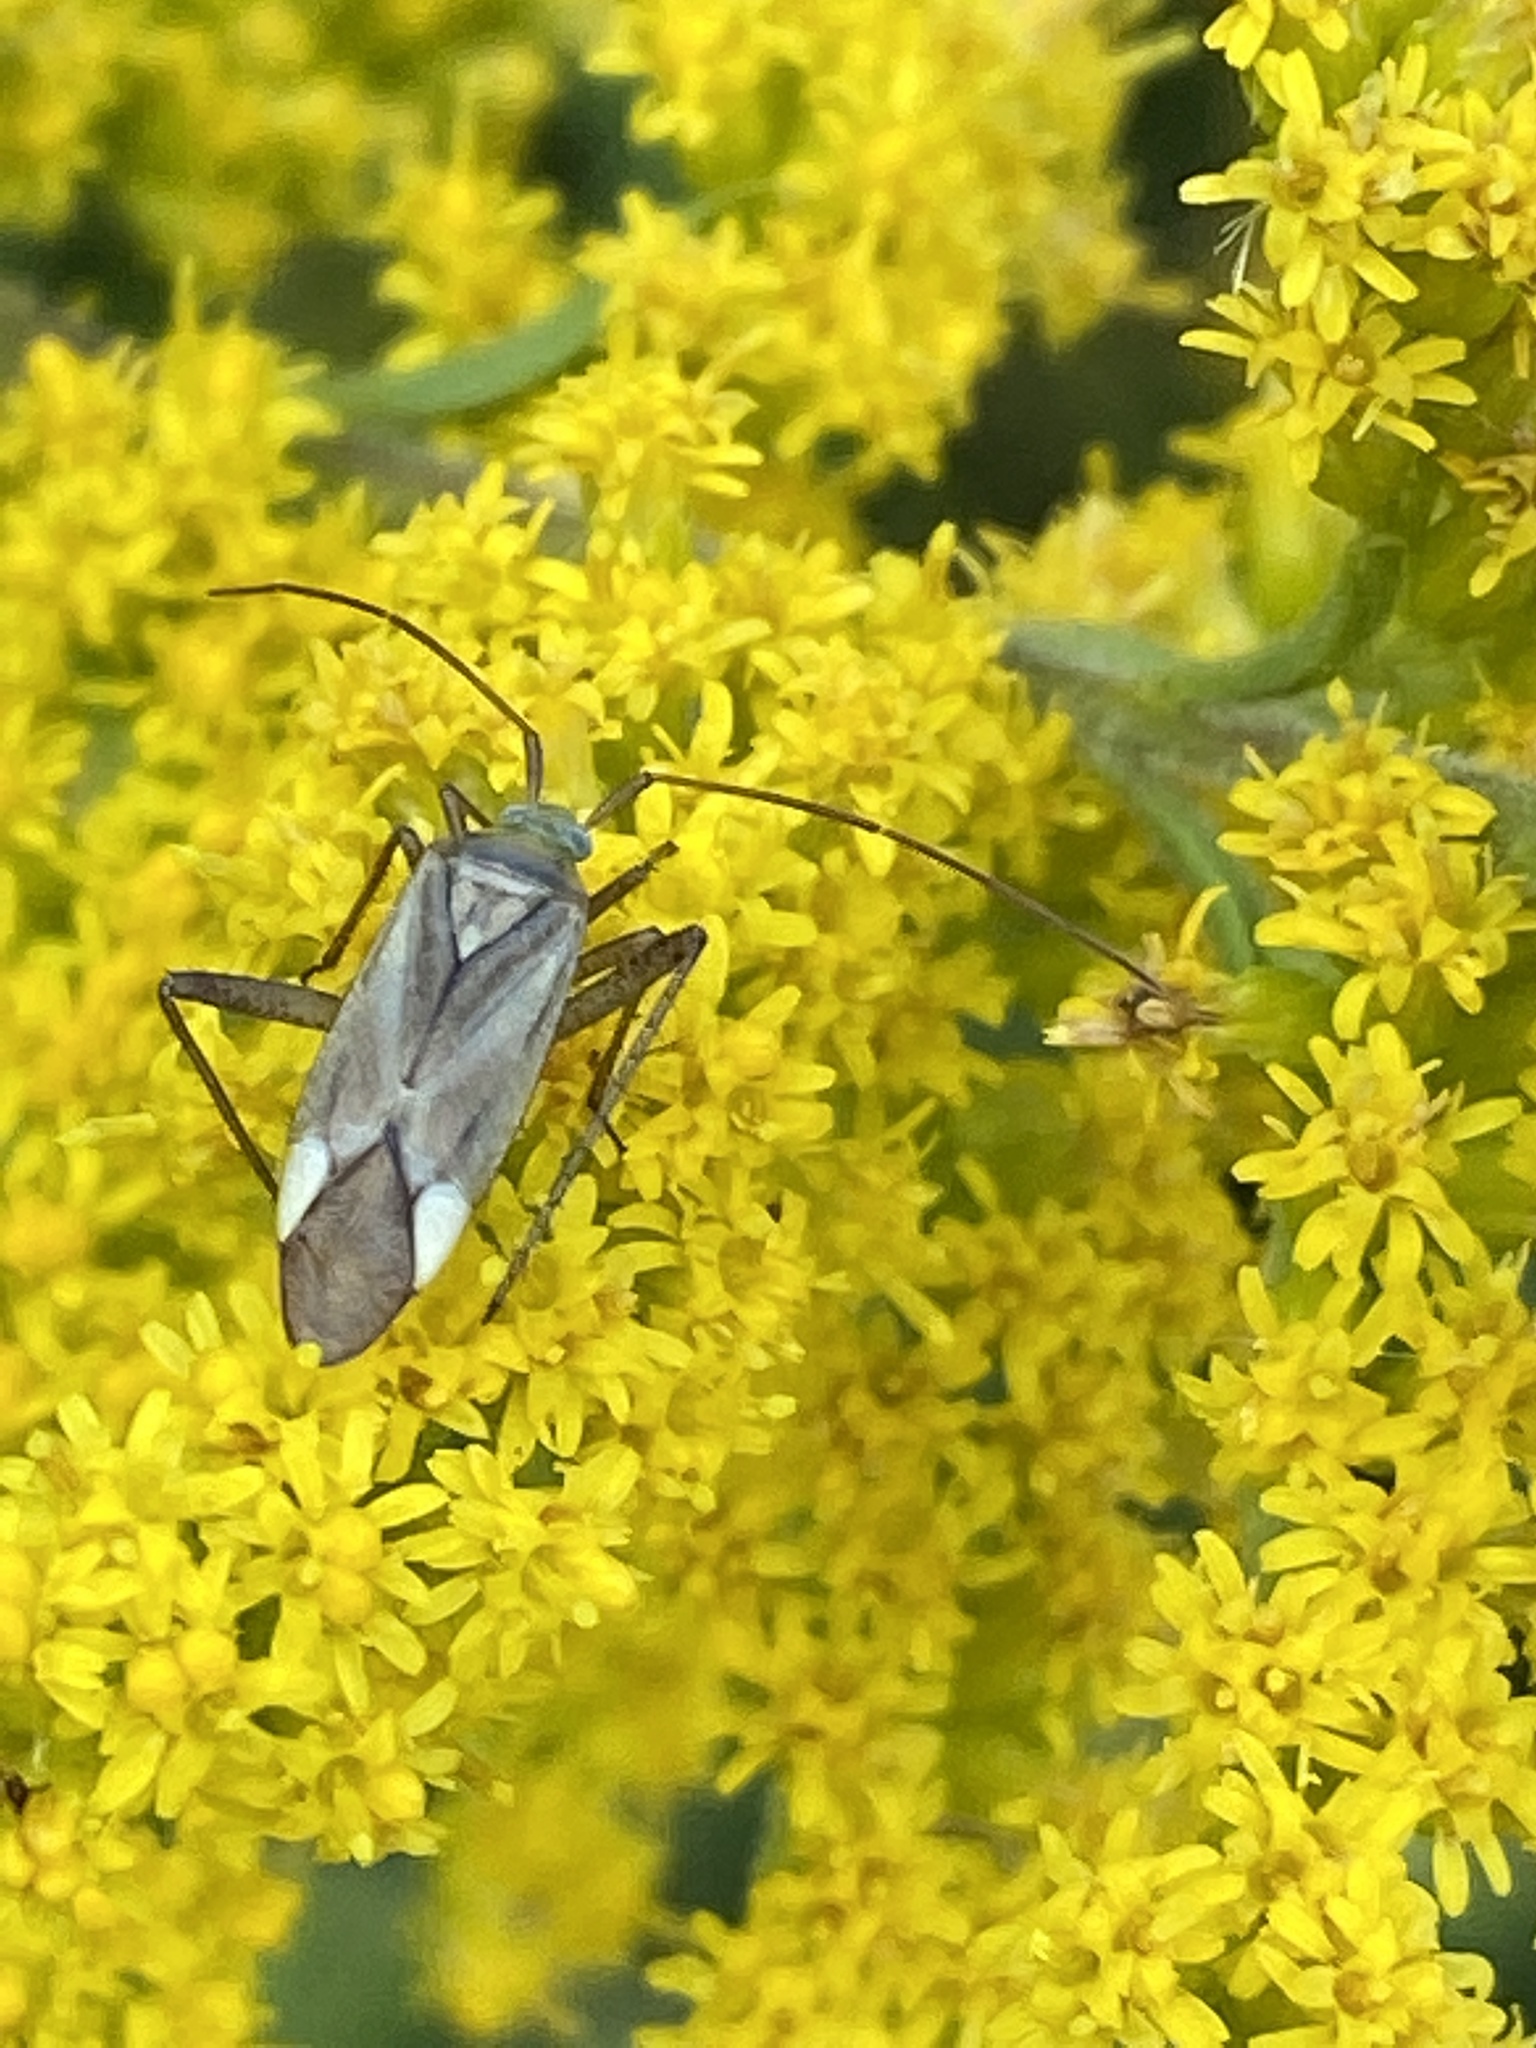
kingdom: Animalia
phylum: Arthropoda
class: Insecta
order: Hemiptera
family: Miridae
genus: Adelphocoris
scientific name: Adelphocoris lineolatus
